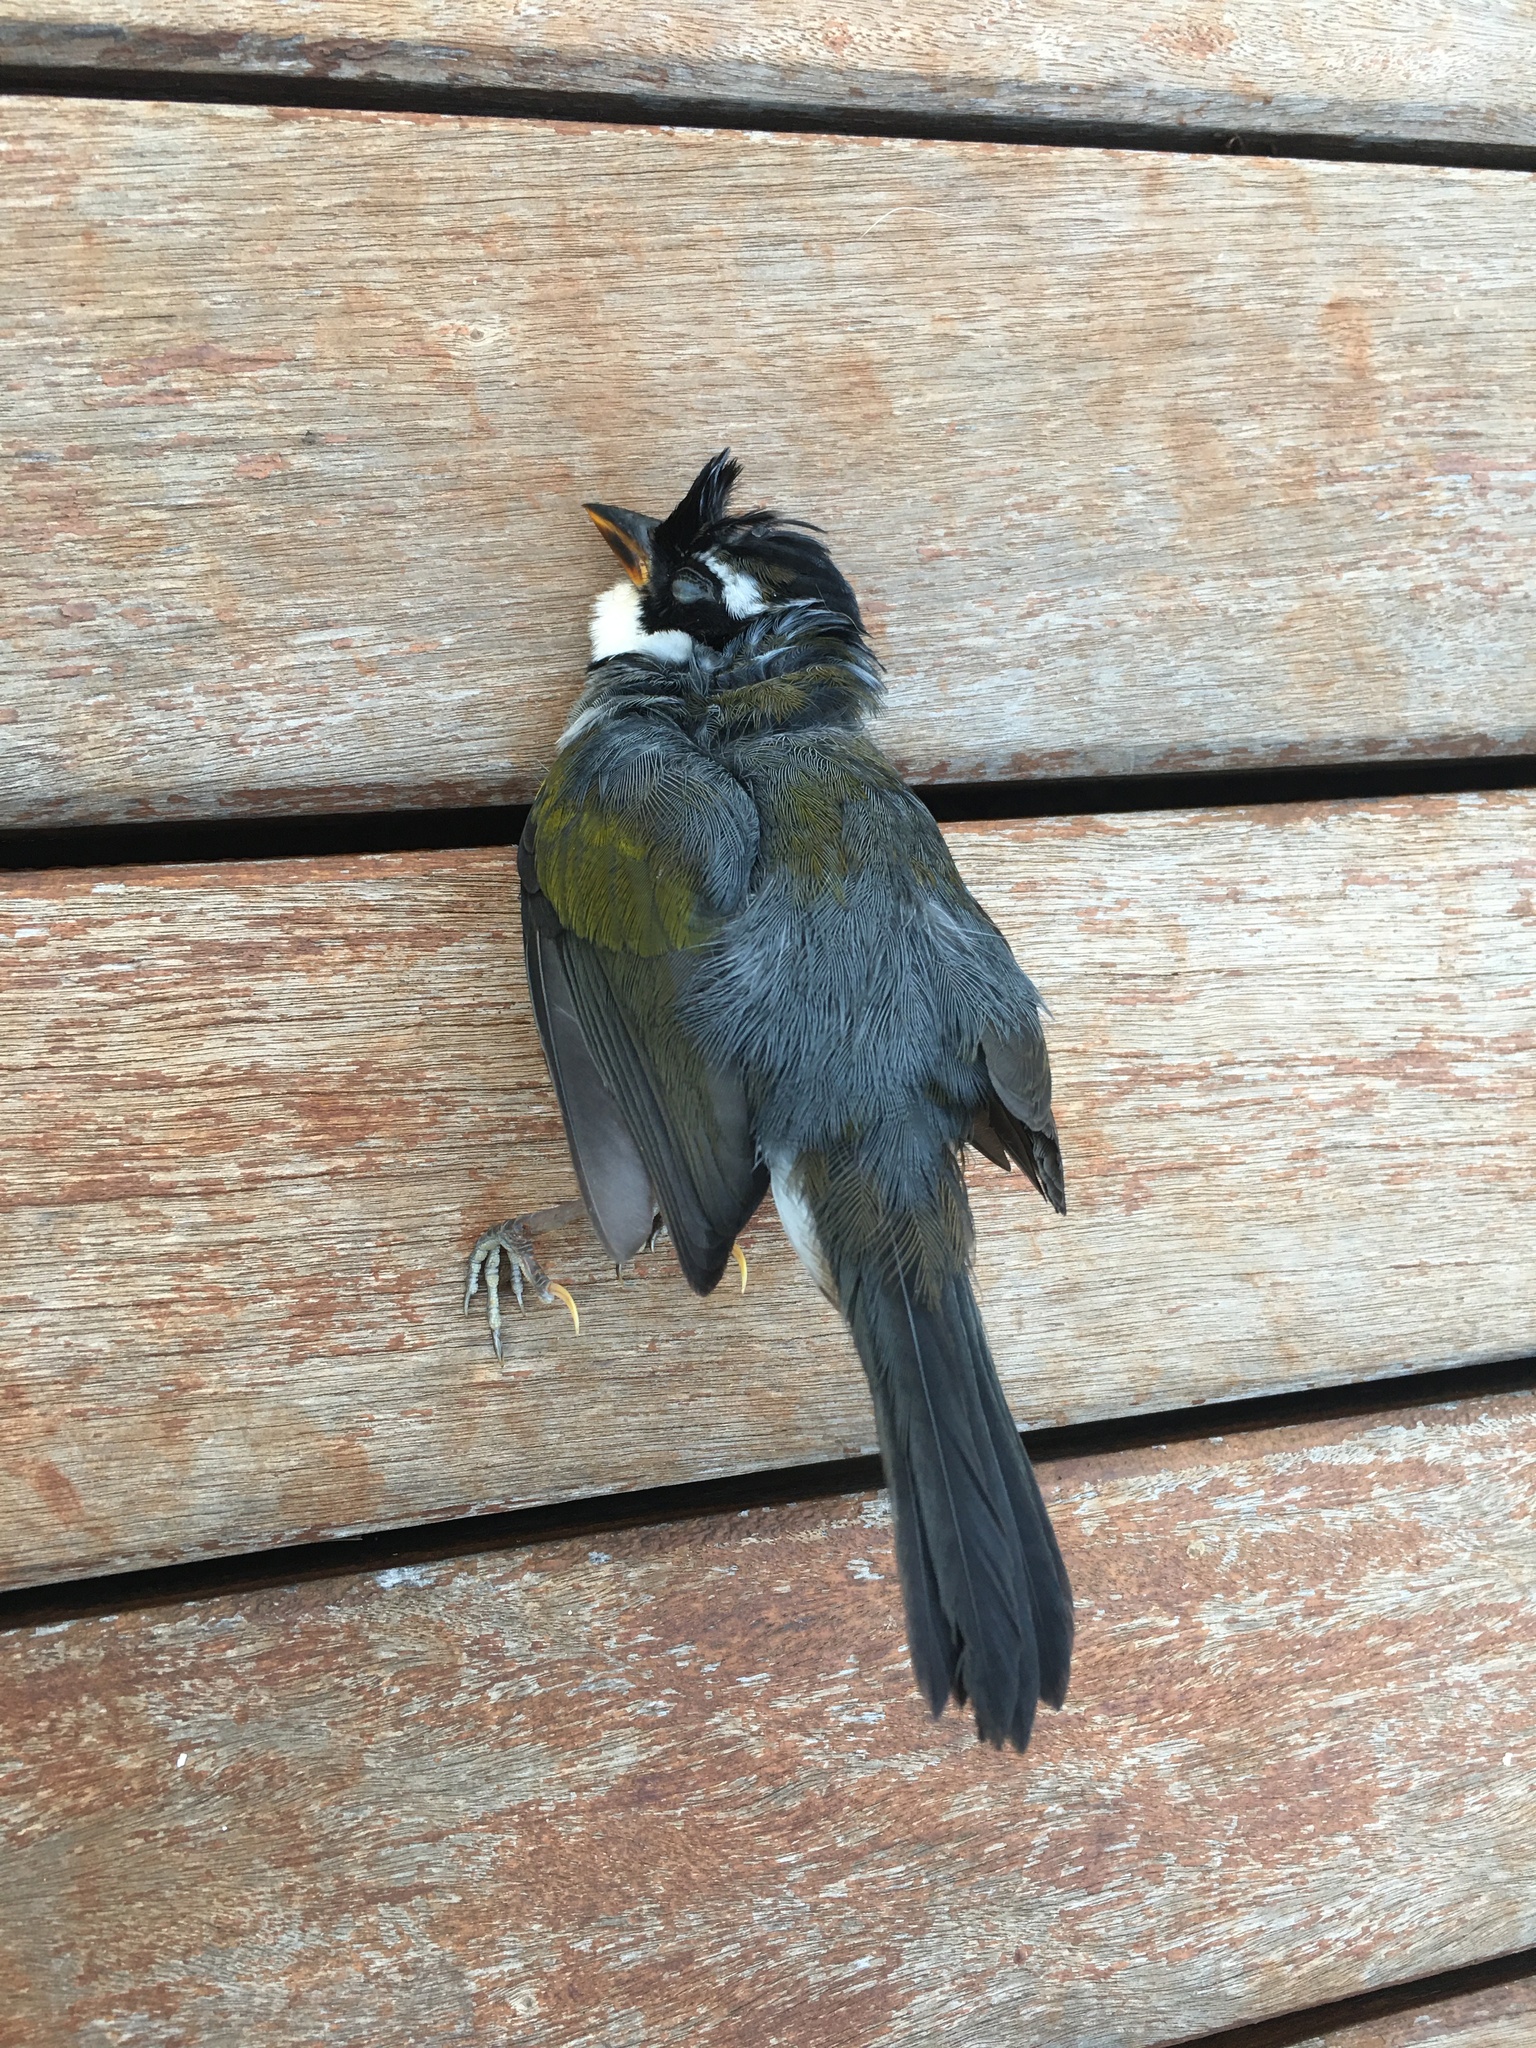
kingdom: Animalia
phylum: Chordata
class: Aves
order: Passeriformes
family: Passerellidae
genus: Arremon
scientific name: Arremon flavirostris
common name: Saffron-billed sparrow
